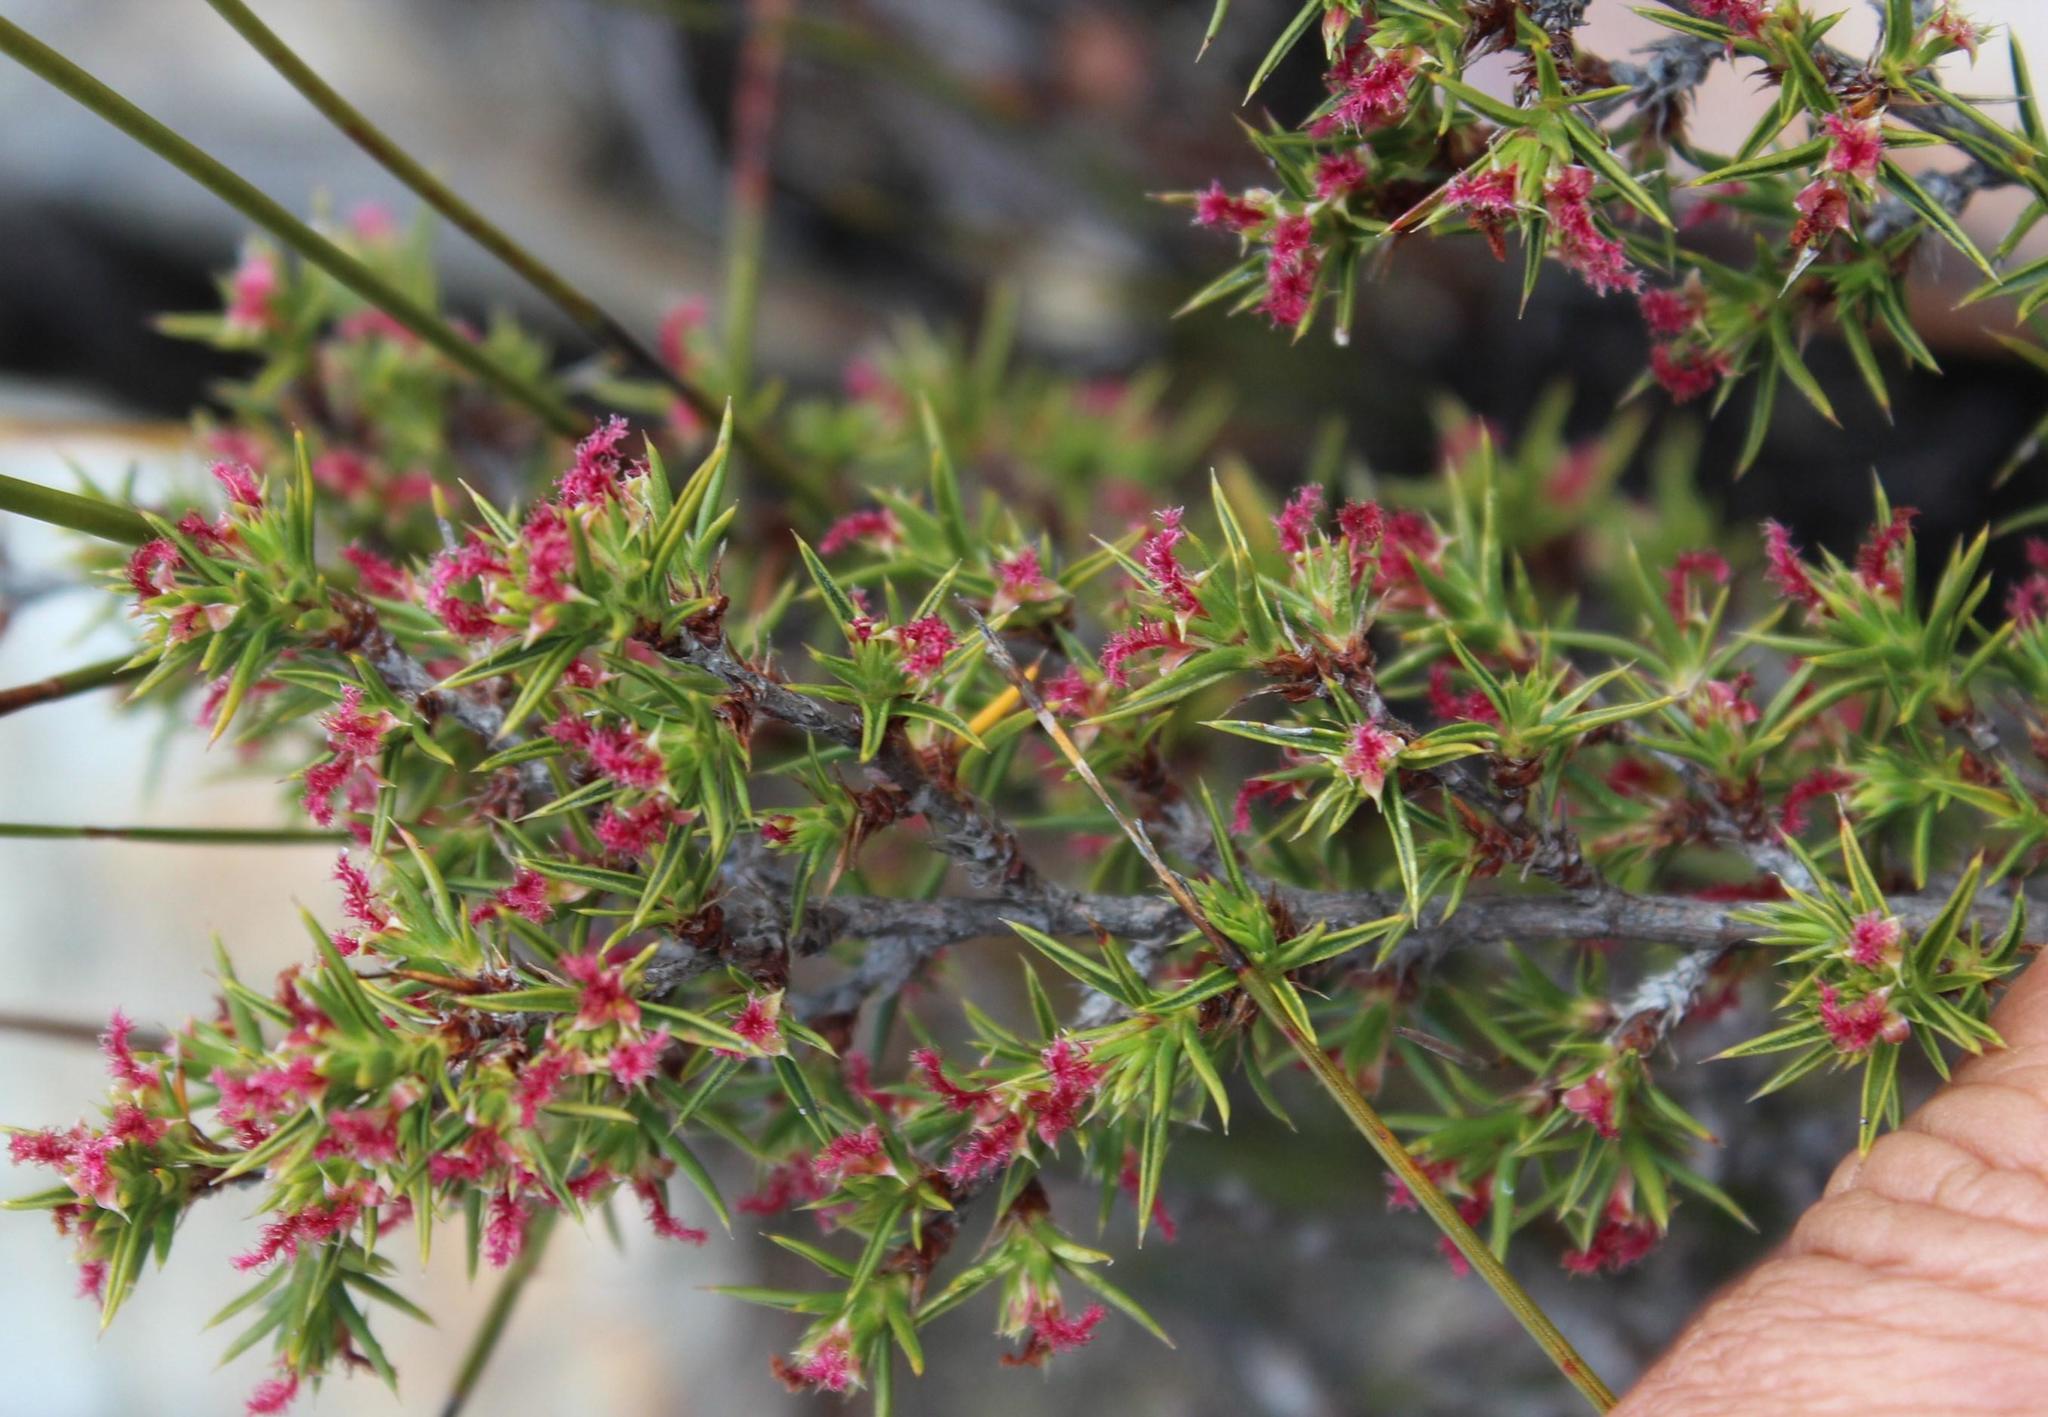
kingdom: Plantae
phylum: Tracheophyta
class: Magnoliopsida
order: Rosales
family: Rosaceae
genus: Cliffortia
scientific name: Cliffortia ruscifolia
